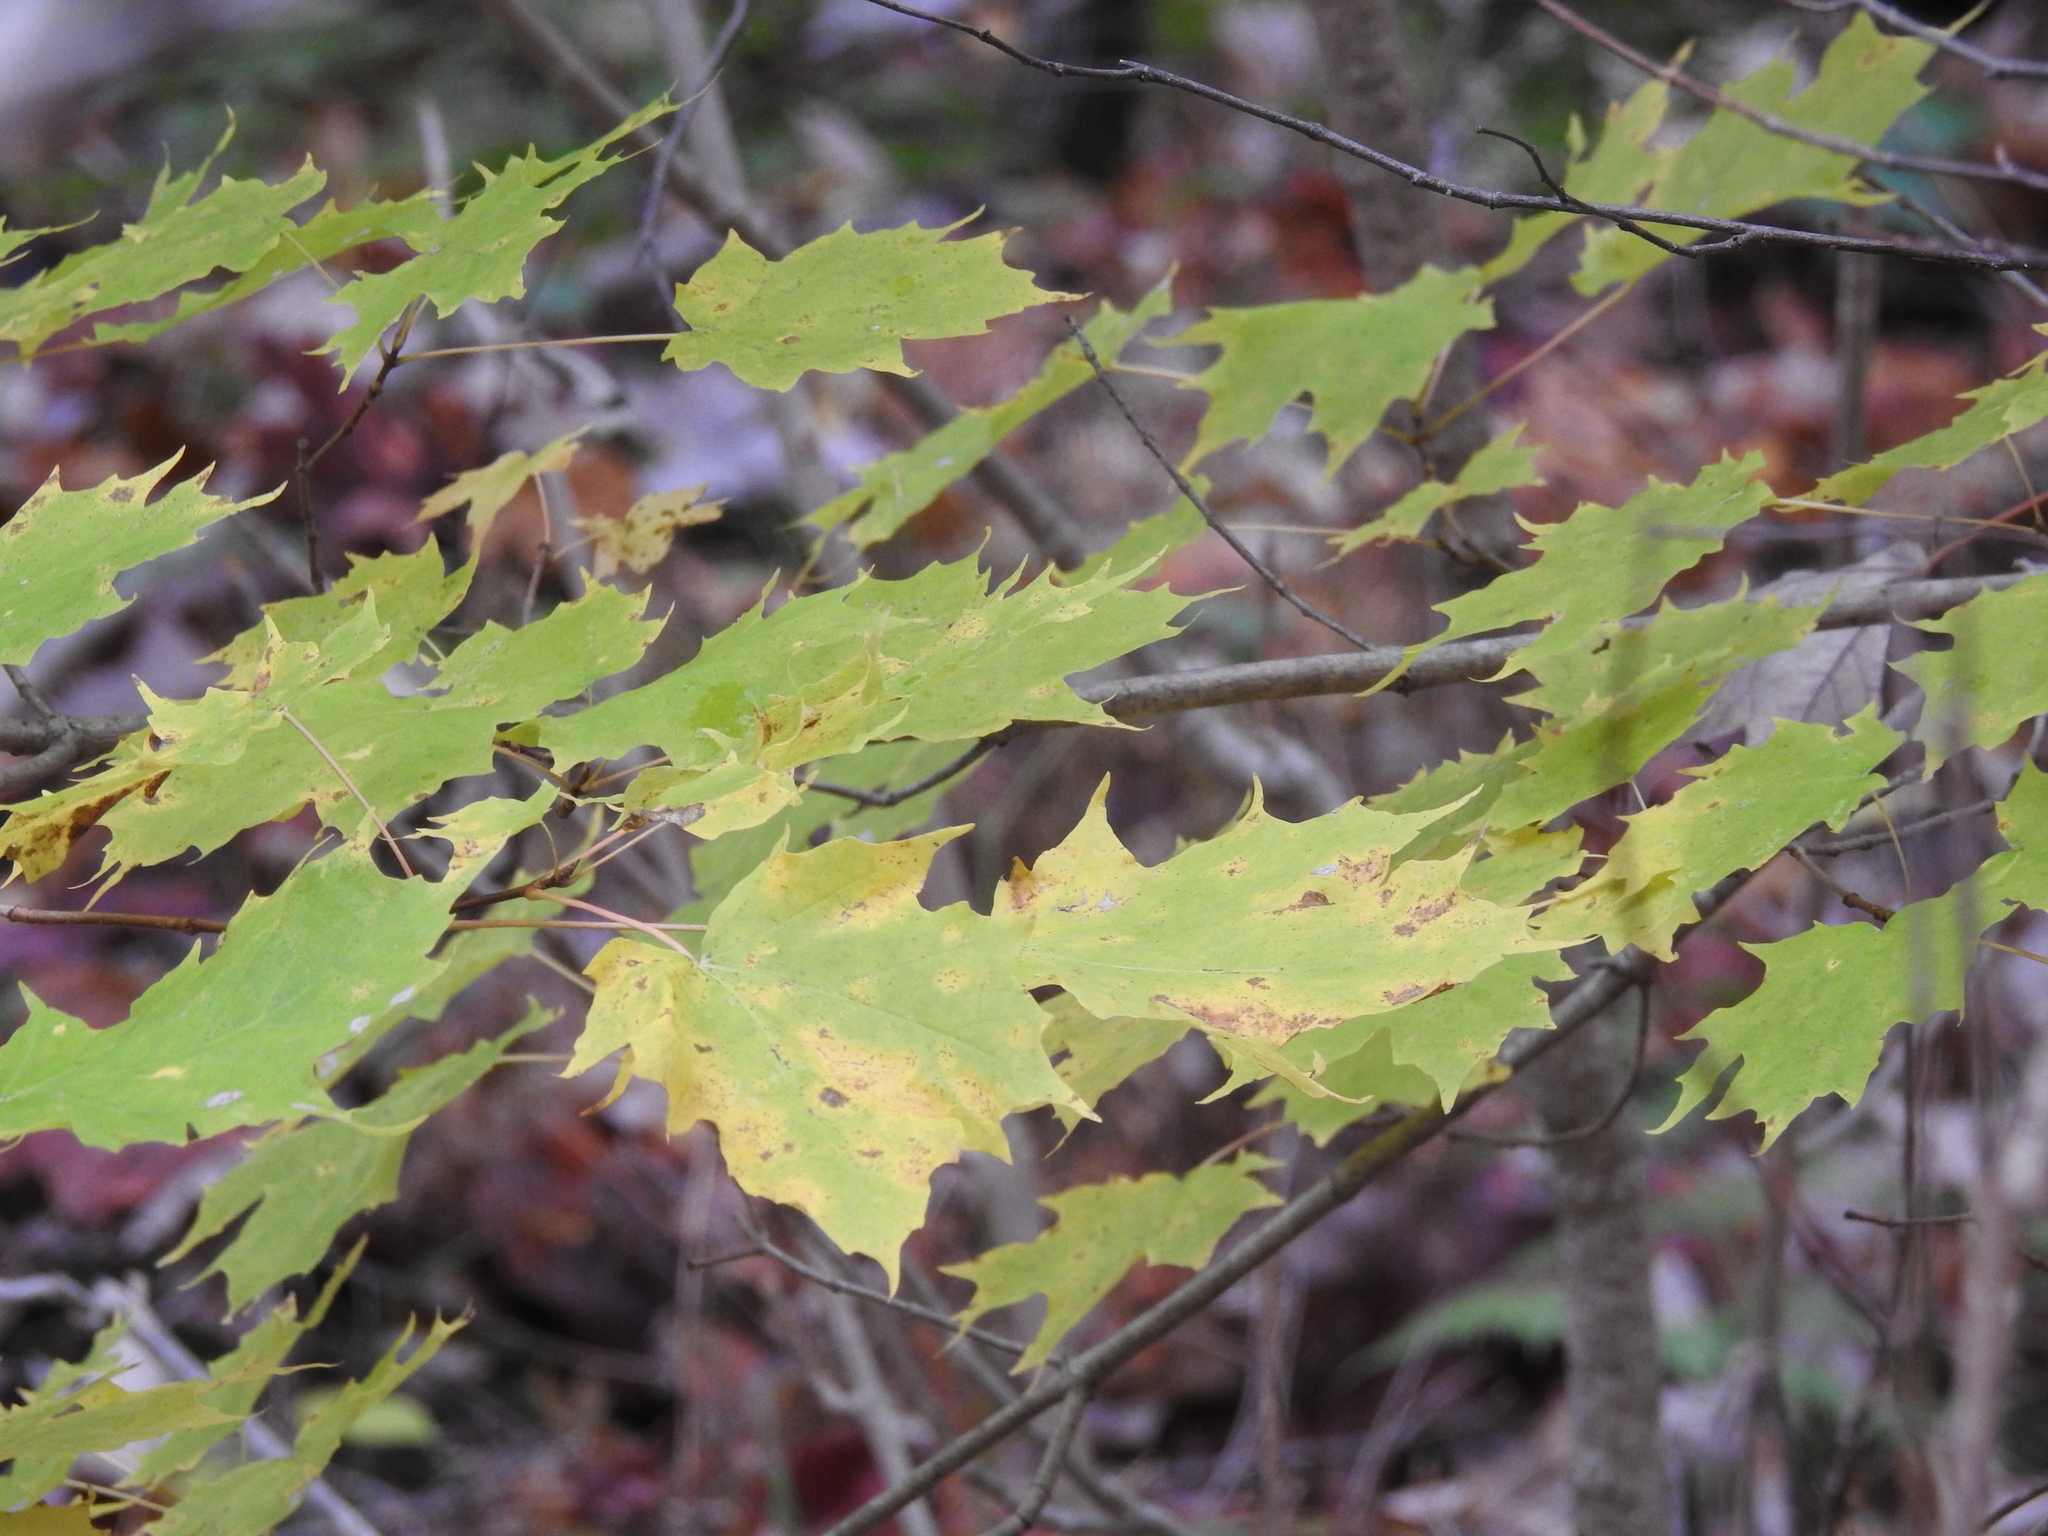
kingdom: Plantae
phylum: Tracheophyta
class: Magnoliopsida
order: Sapindales
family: Sapindaceae
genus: Acer
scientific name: Acer saccharum
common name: Sugar maple
